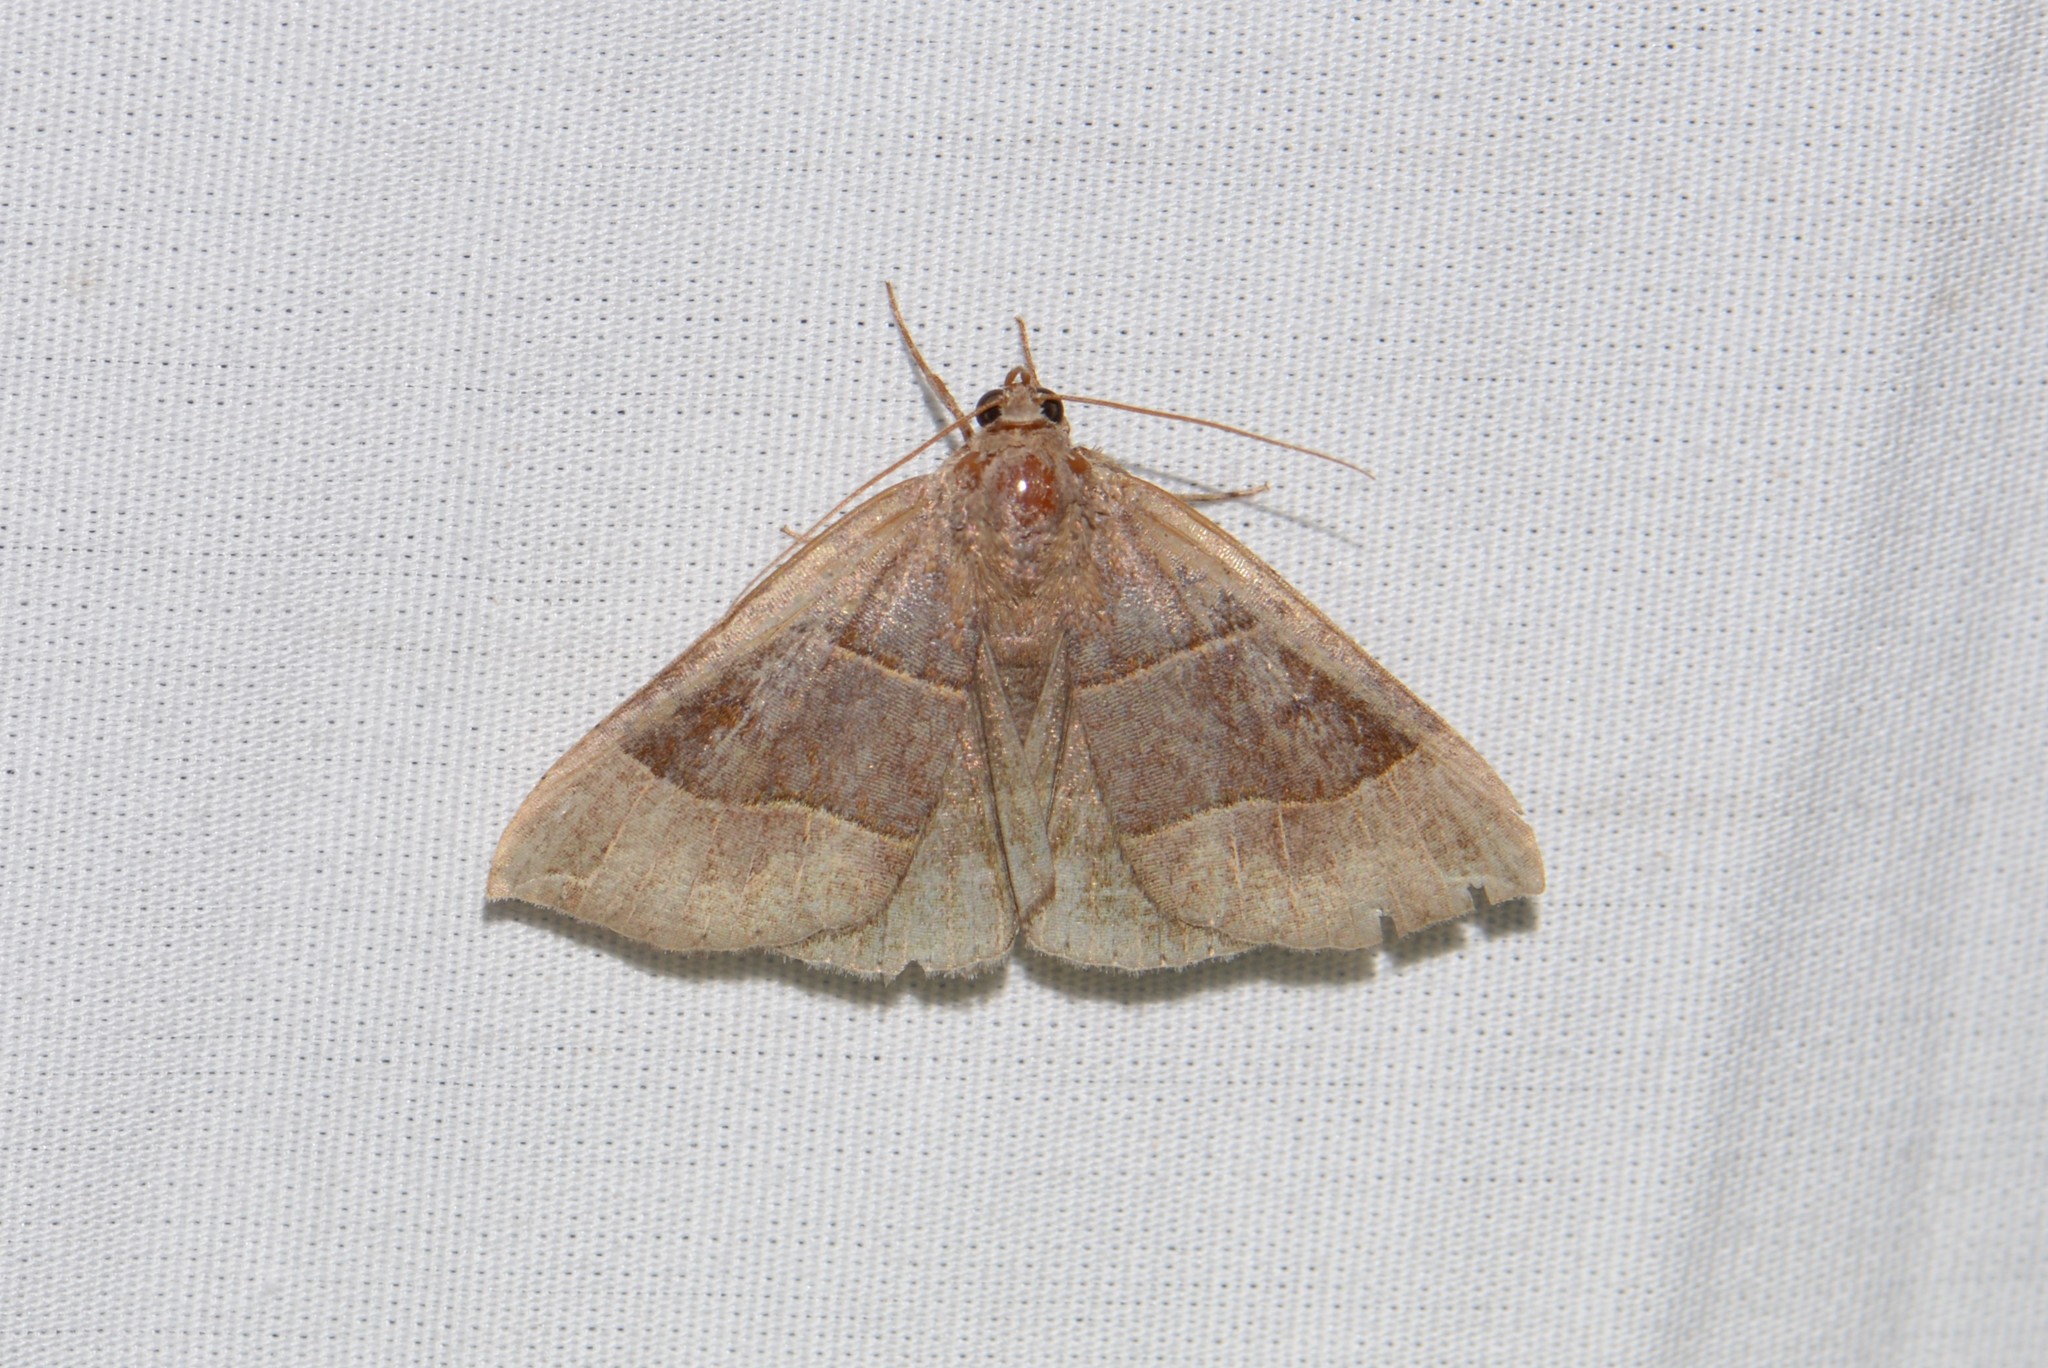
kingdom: Animalia
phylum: Arthropoda
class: Insecta
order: Lepidoptera
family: Erebidae
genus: Parallelia
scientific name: Parallelia bistriaris
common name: Maple looper moth
